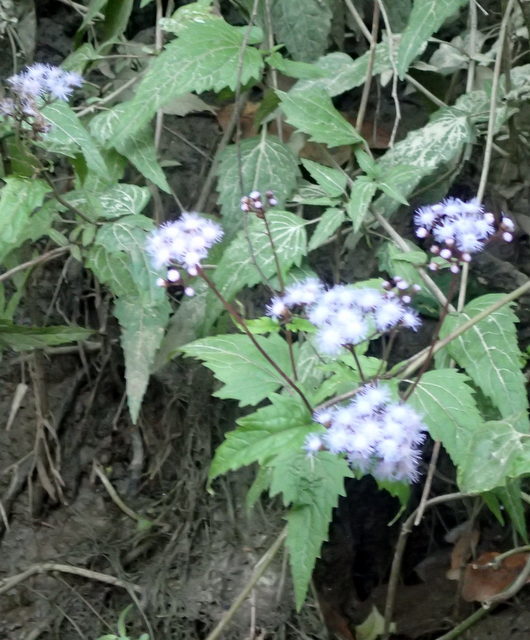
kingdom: Plantae
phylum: Tracheophyta
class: Magnoliopsida
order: Asterales
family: Asteraceae
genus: Conoclinium
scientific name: Conoclinium coelestinum
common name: Blue mistflower
